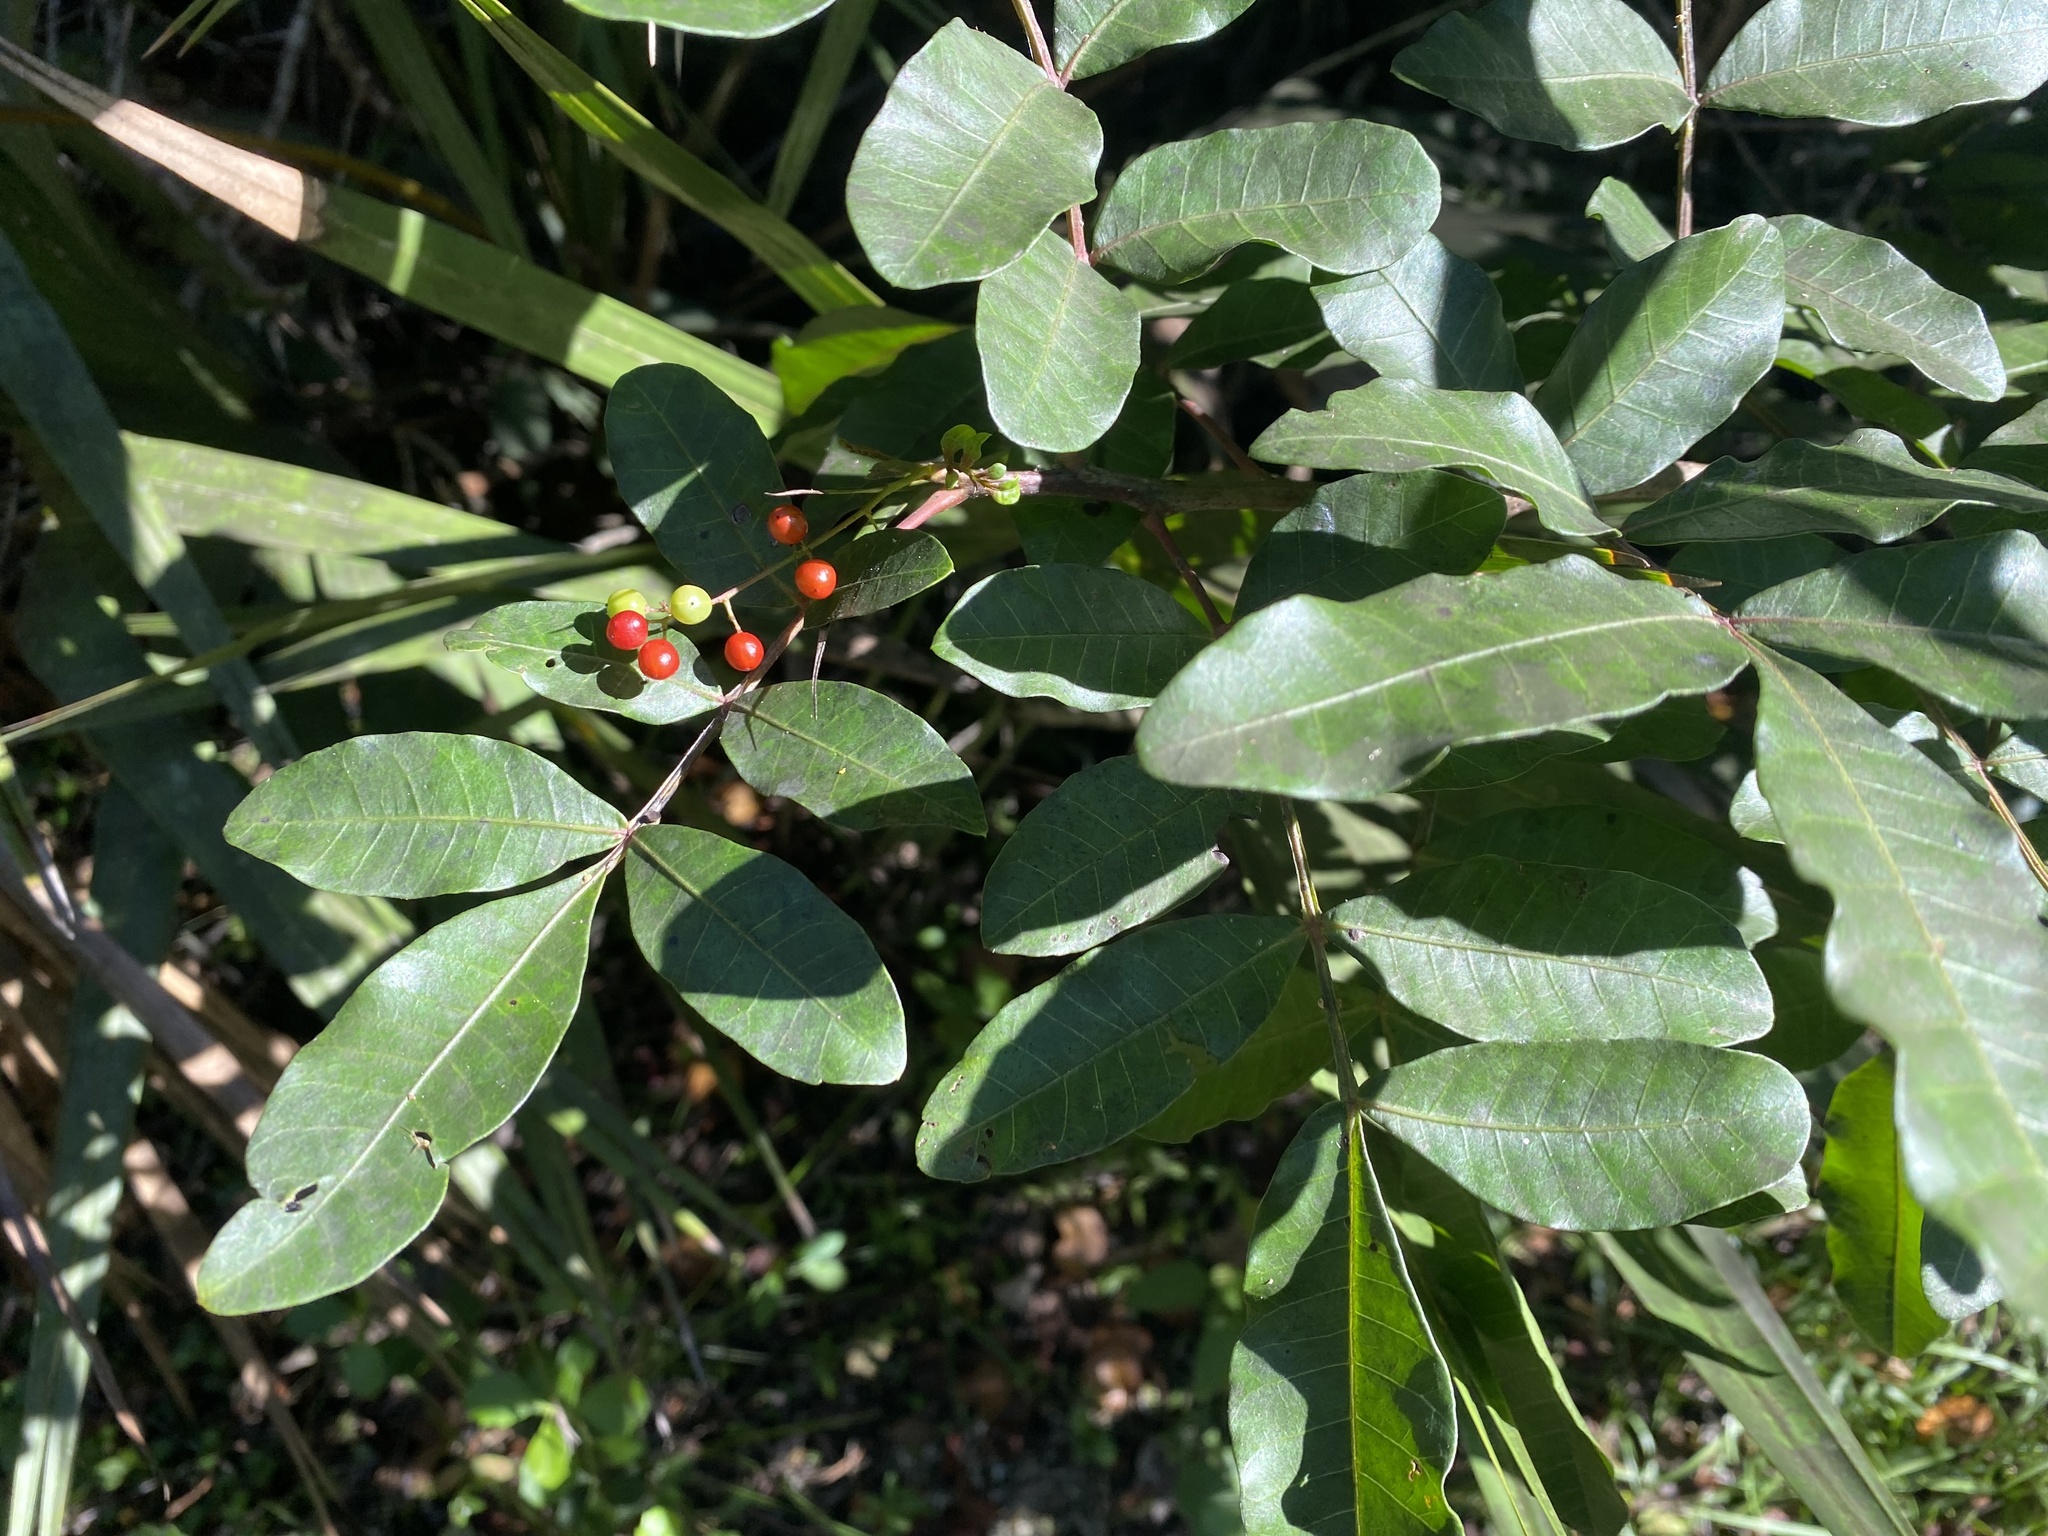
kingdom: Plantae
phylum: Tracheophyta
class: Magnoliopsida
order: Sapindales
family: Anacardiaceae
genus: Schinus
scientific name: Schinus terebinthifolia
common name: Brazilian peppertree
